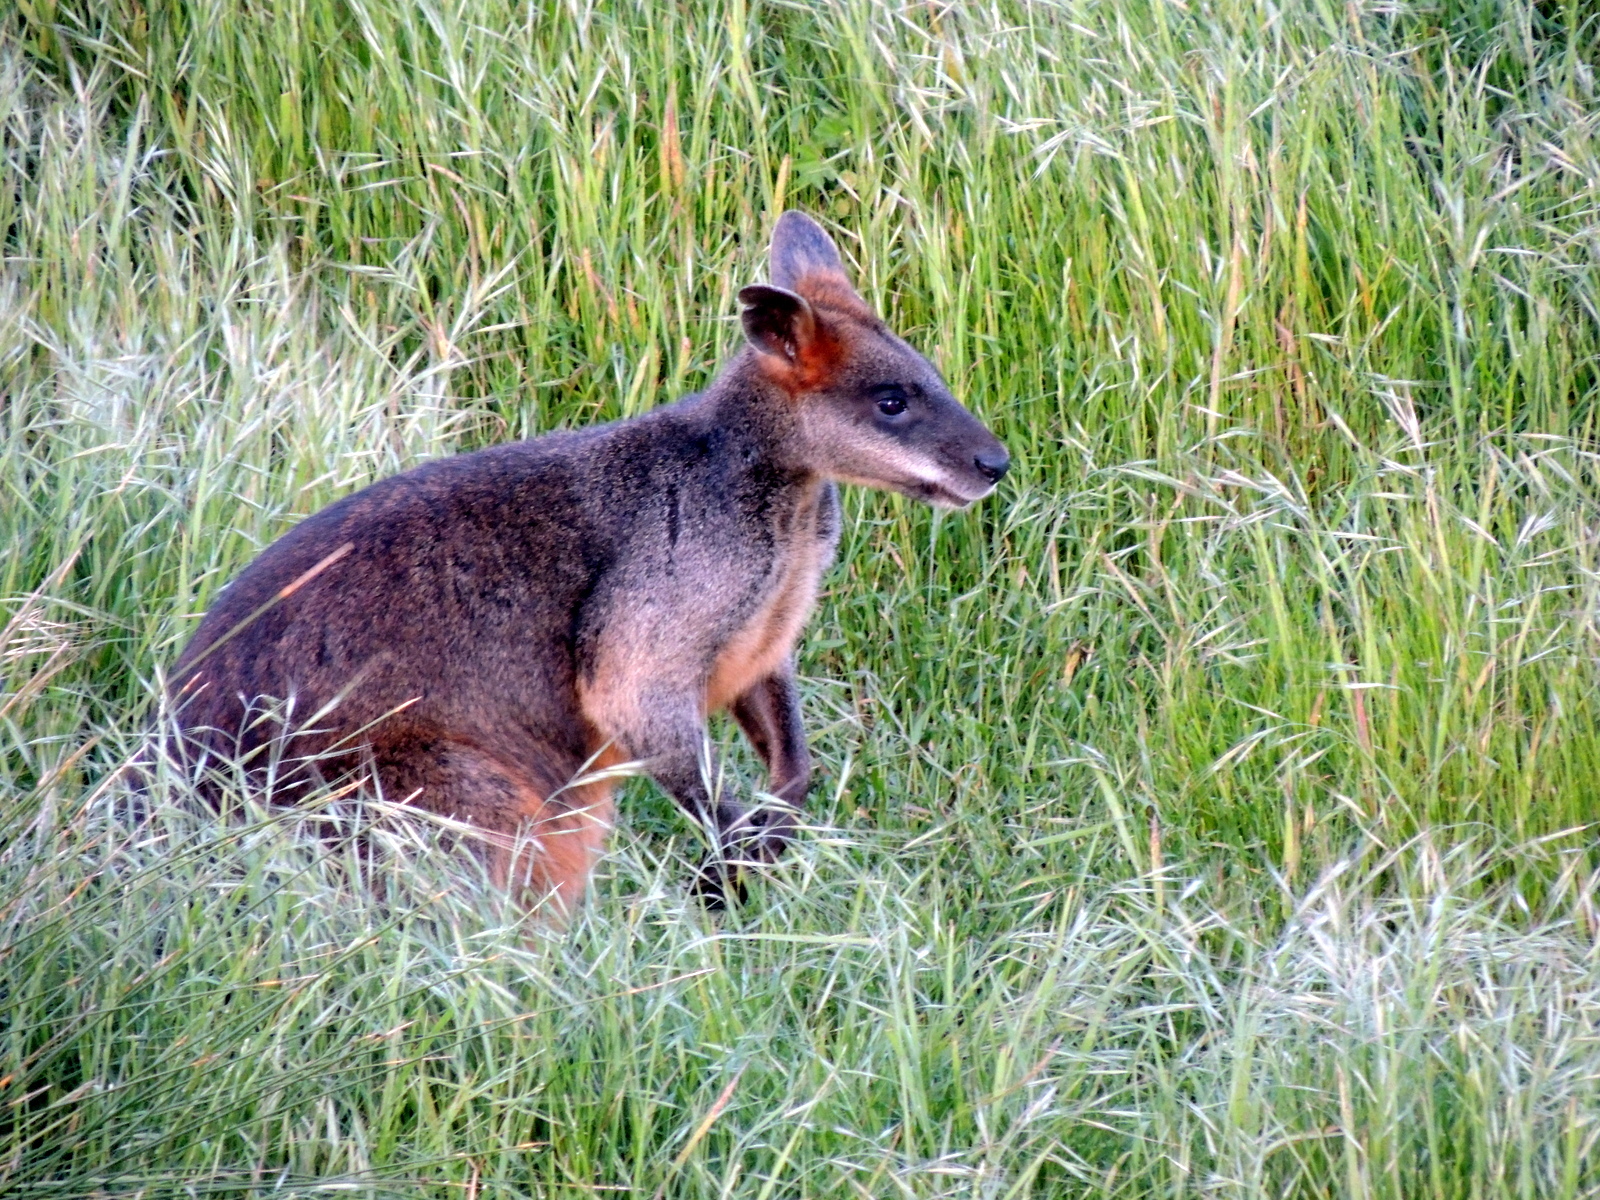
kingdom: Animalia
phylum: Chordata
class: Mammalia
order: Diprotodontia
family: Macropodidae
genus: Wallabia
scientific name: Wallabia bicolor
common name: Swamp wallaby
